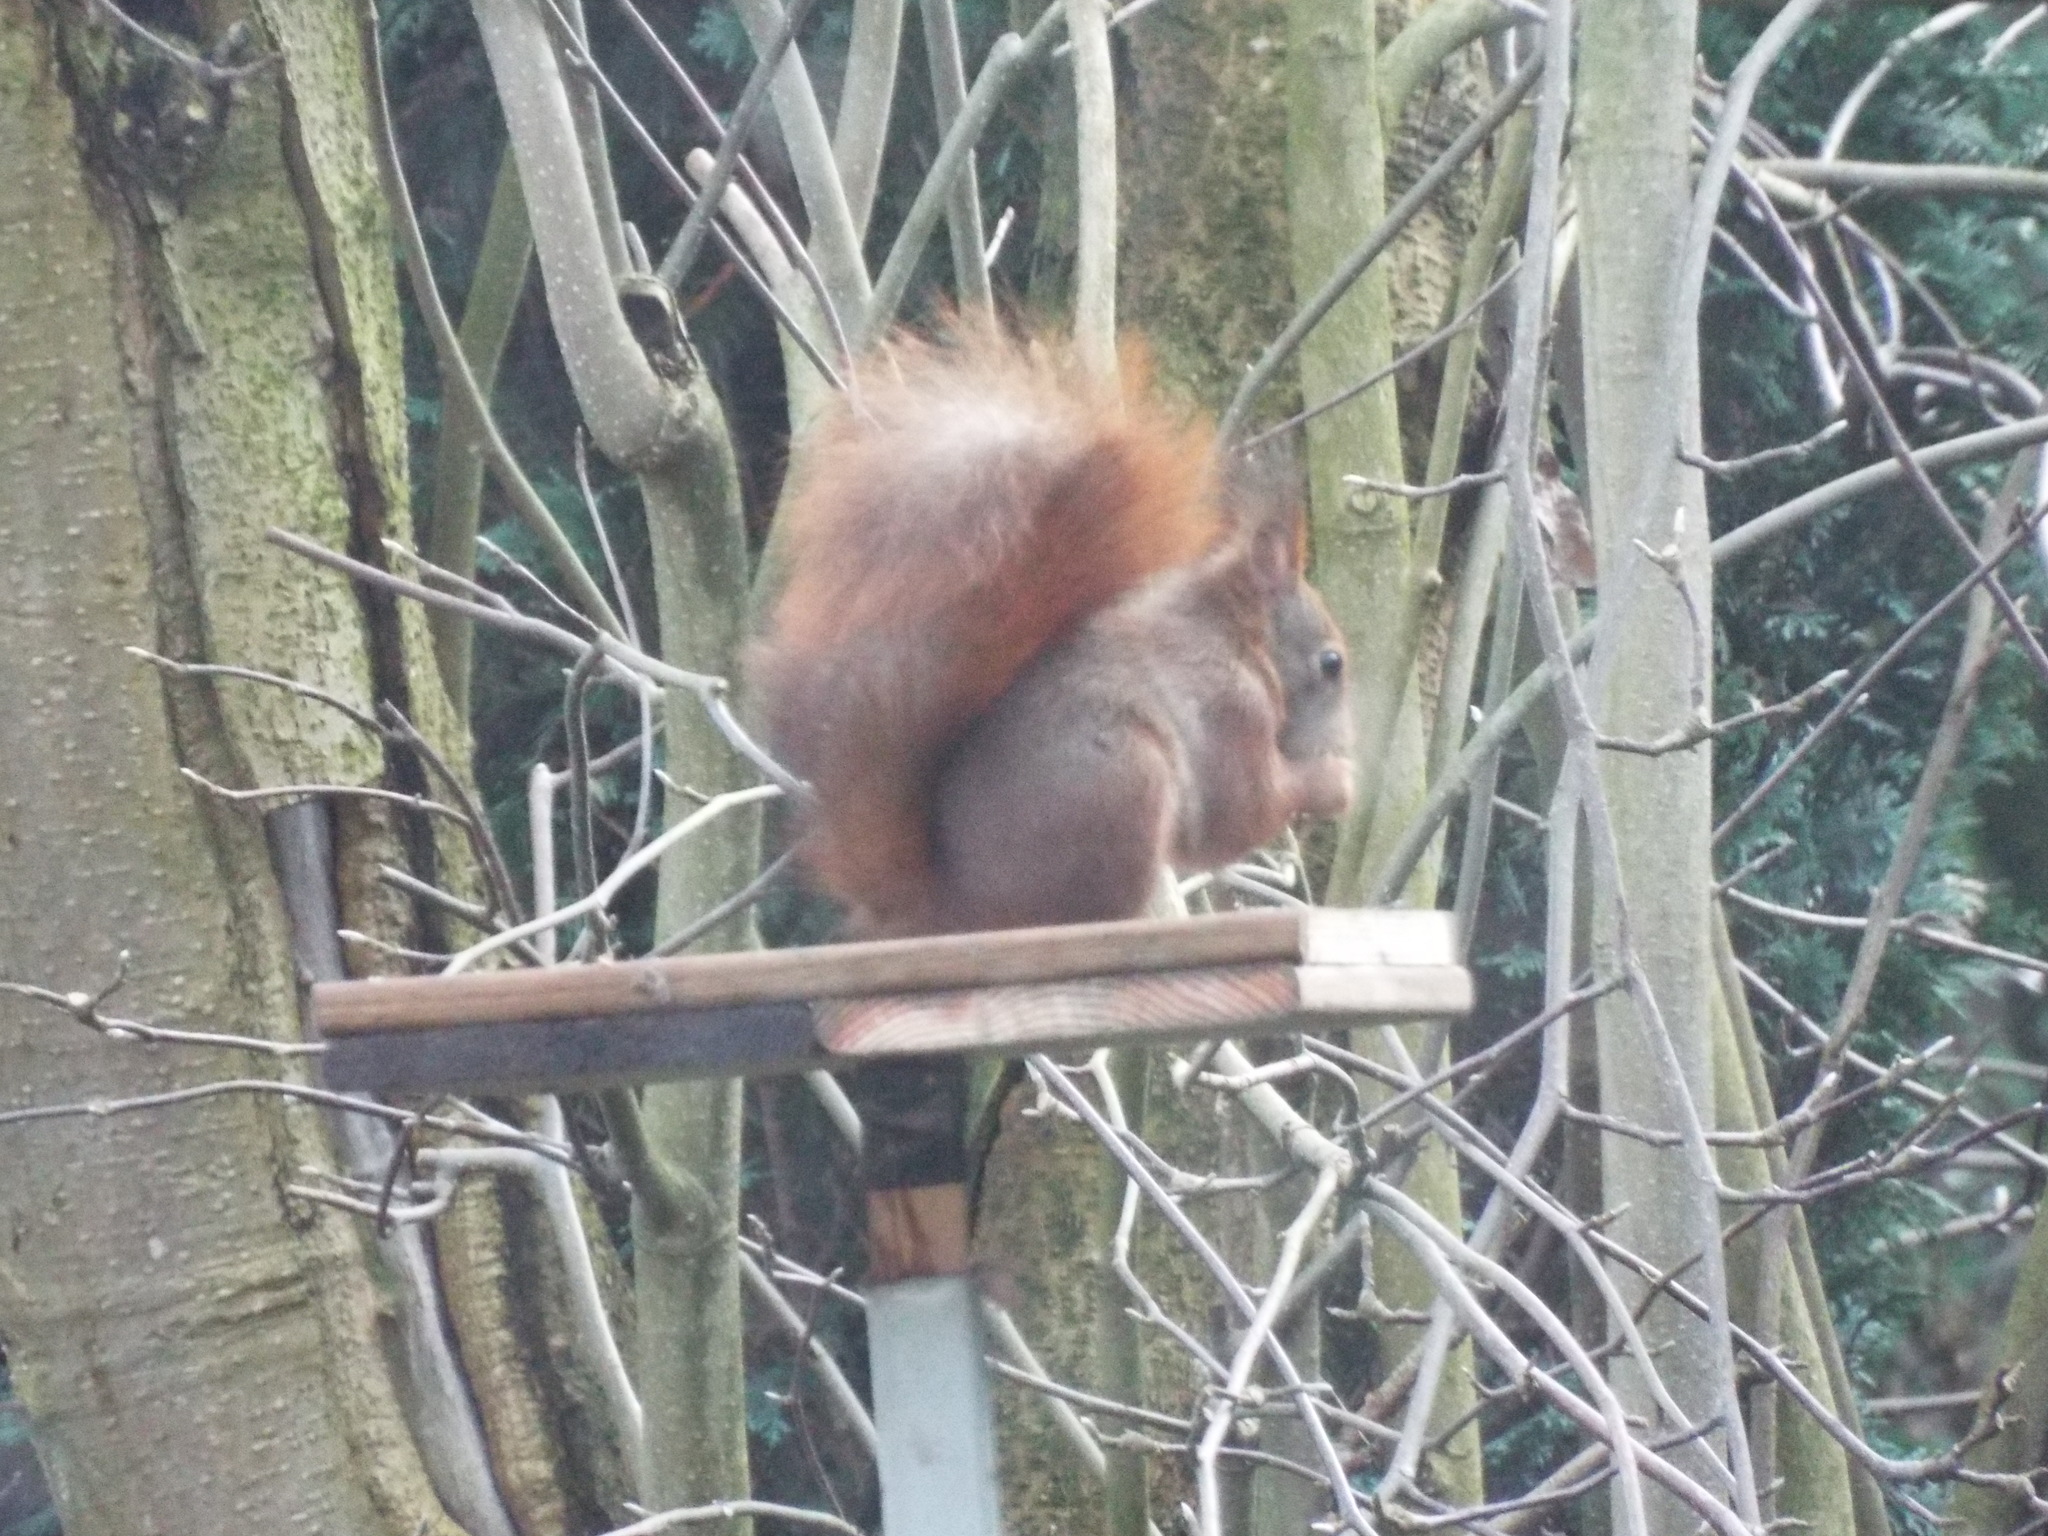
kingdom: Animalia
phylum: Chordata
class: Mammalia
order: Rodentia
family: Sciuridae
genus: Sciurus
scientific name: Sciurus vulgaris
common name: Eurasian red squirrel
